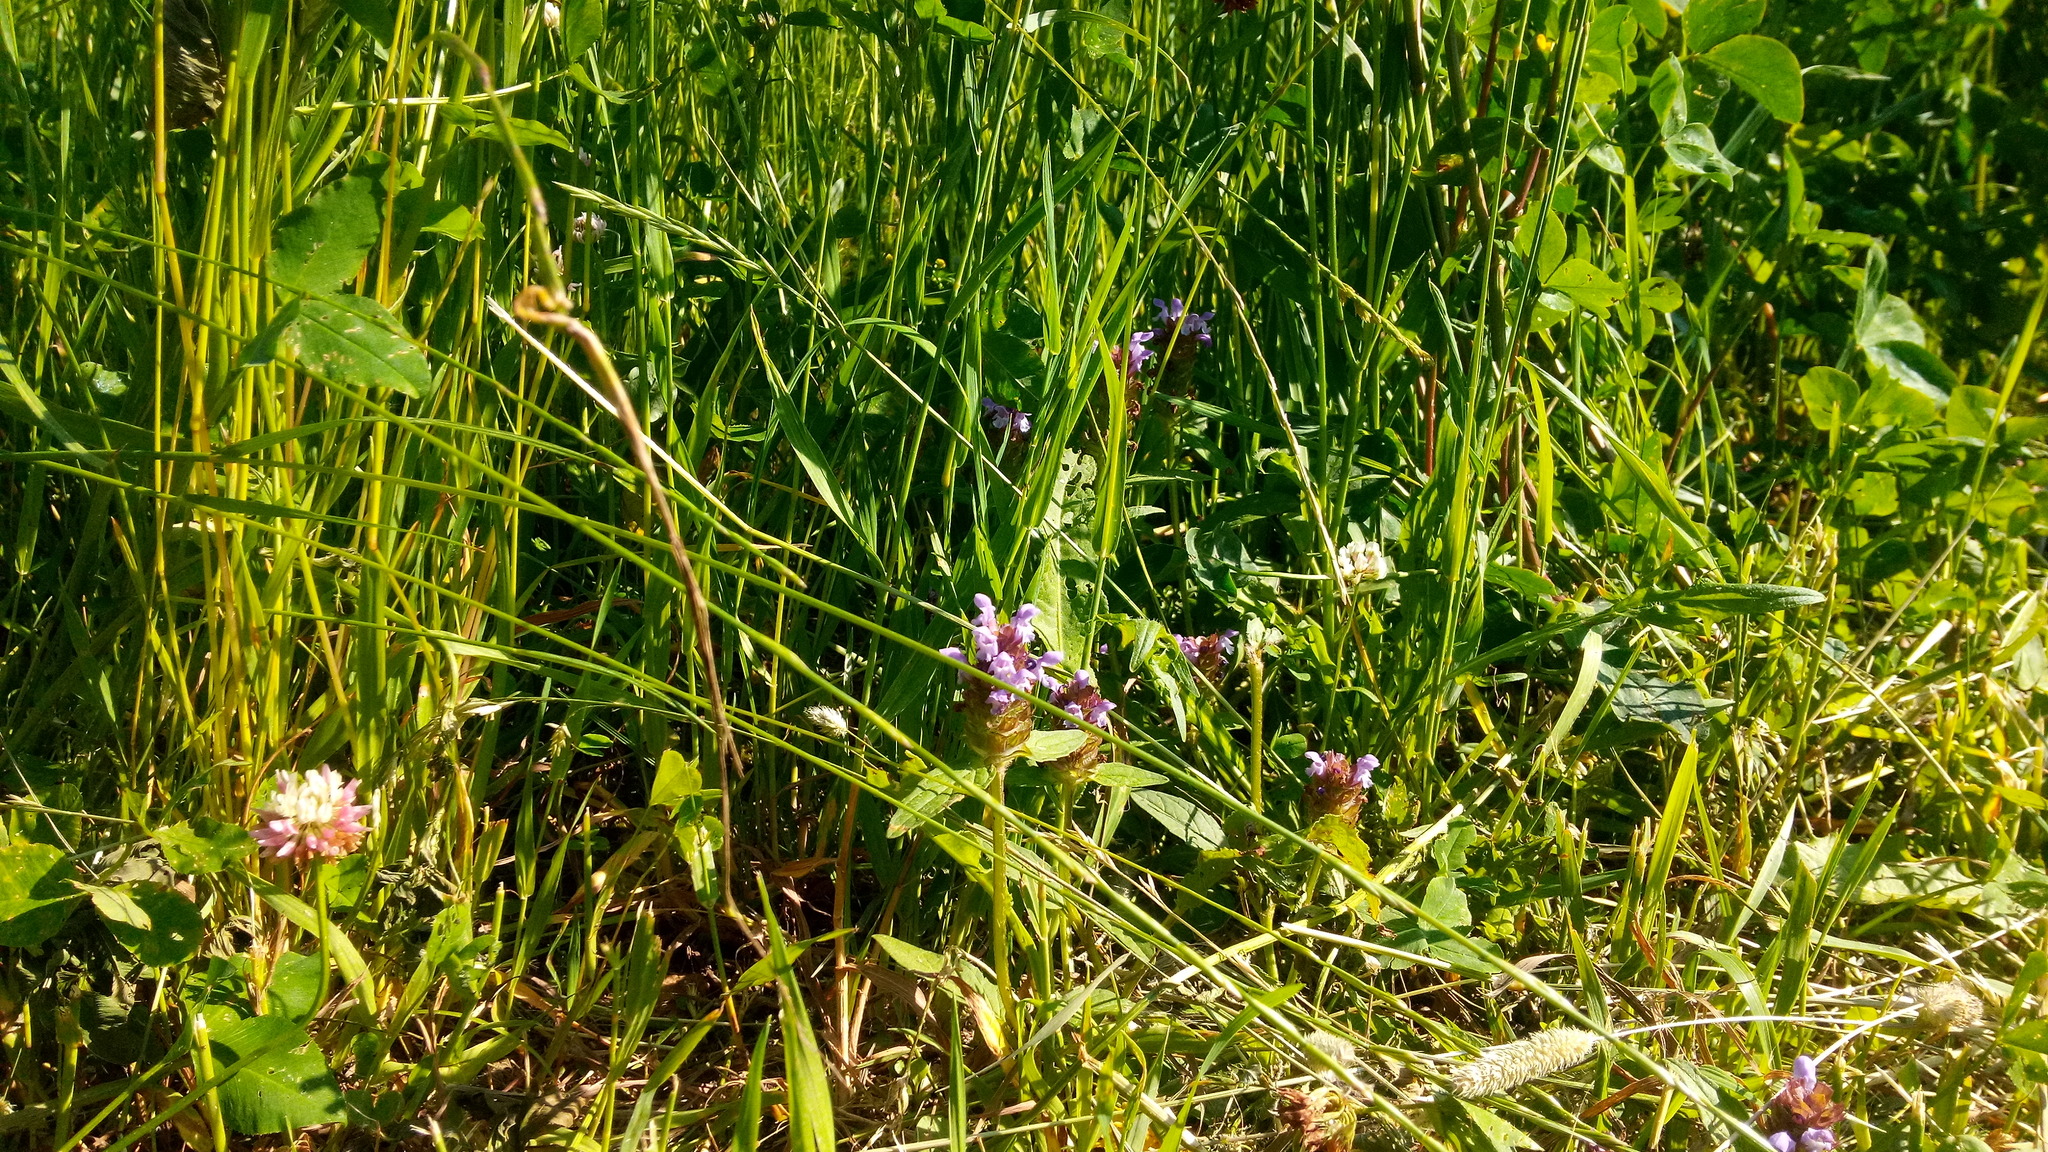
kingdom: Plantae
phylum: Tracheophyta
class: Magnoliopsida
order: Lamiales
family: Lamiaceae
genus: Prunella
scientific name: Prunella vulgaris
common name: Heal-all
